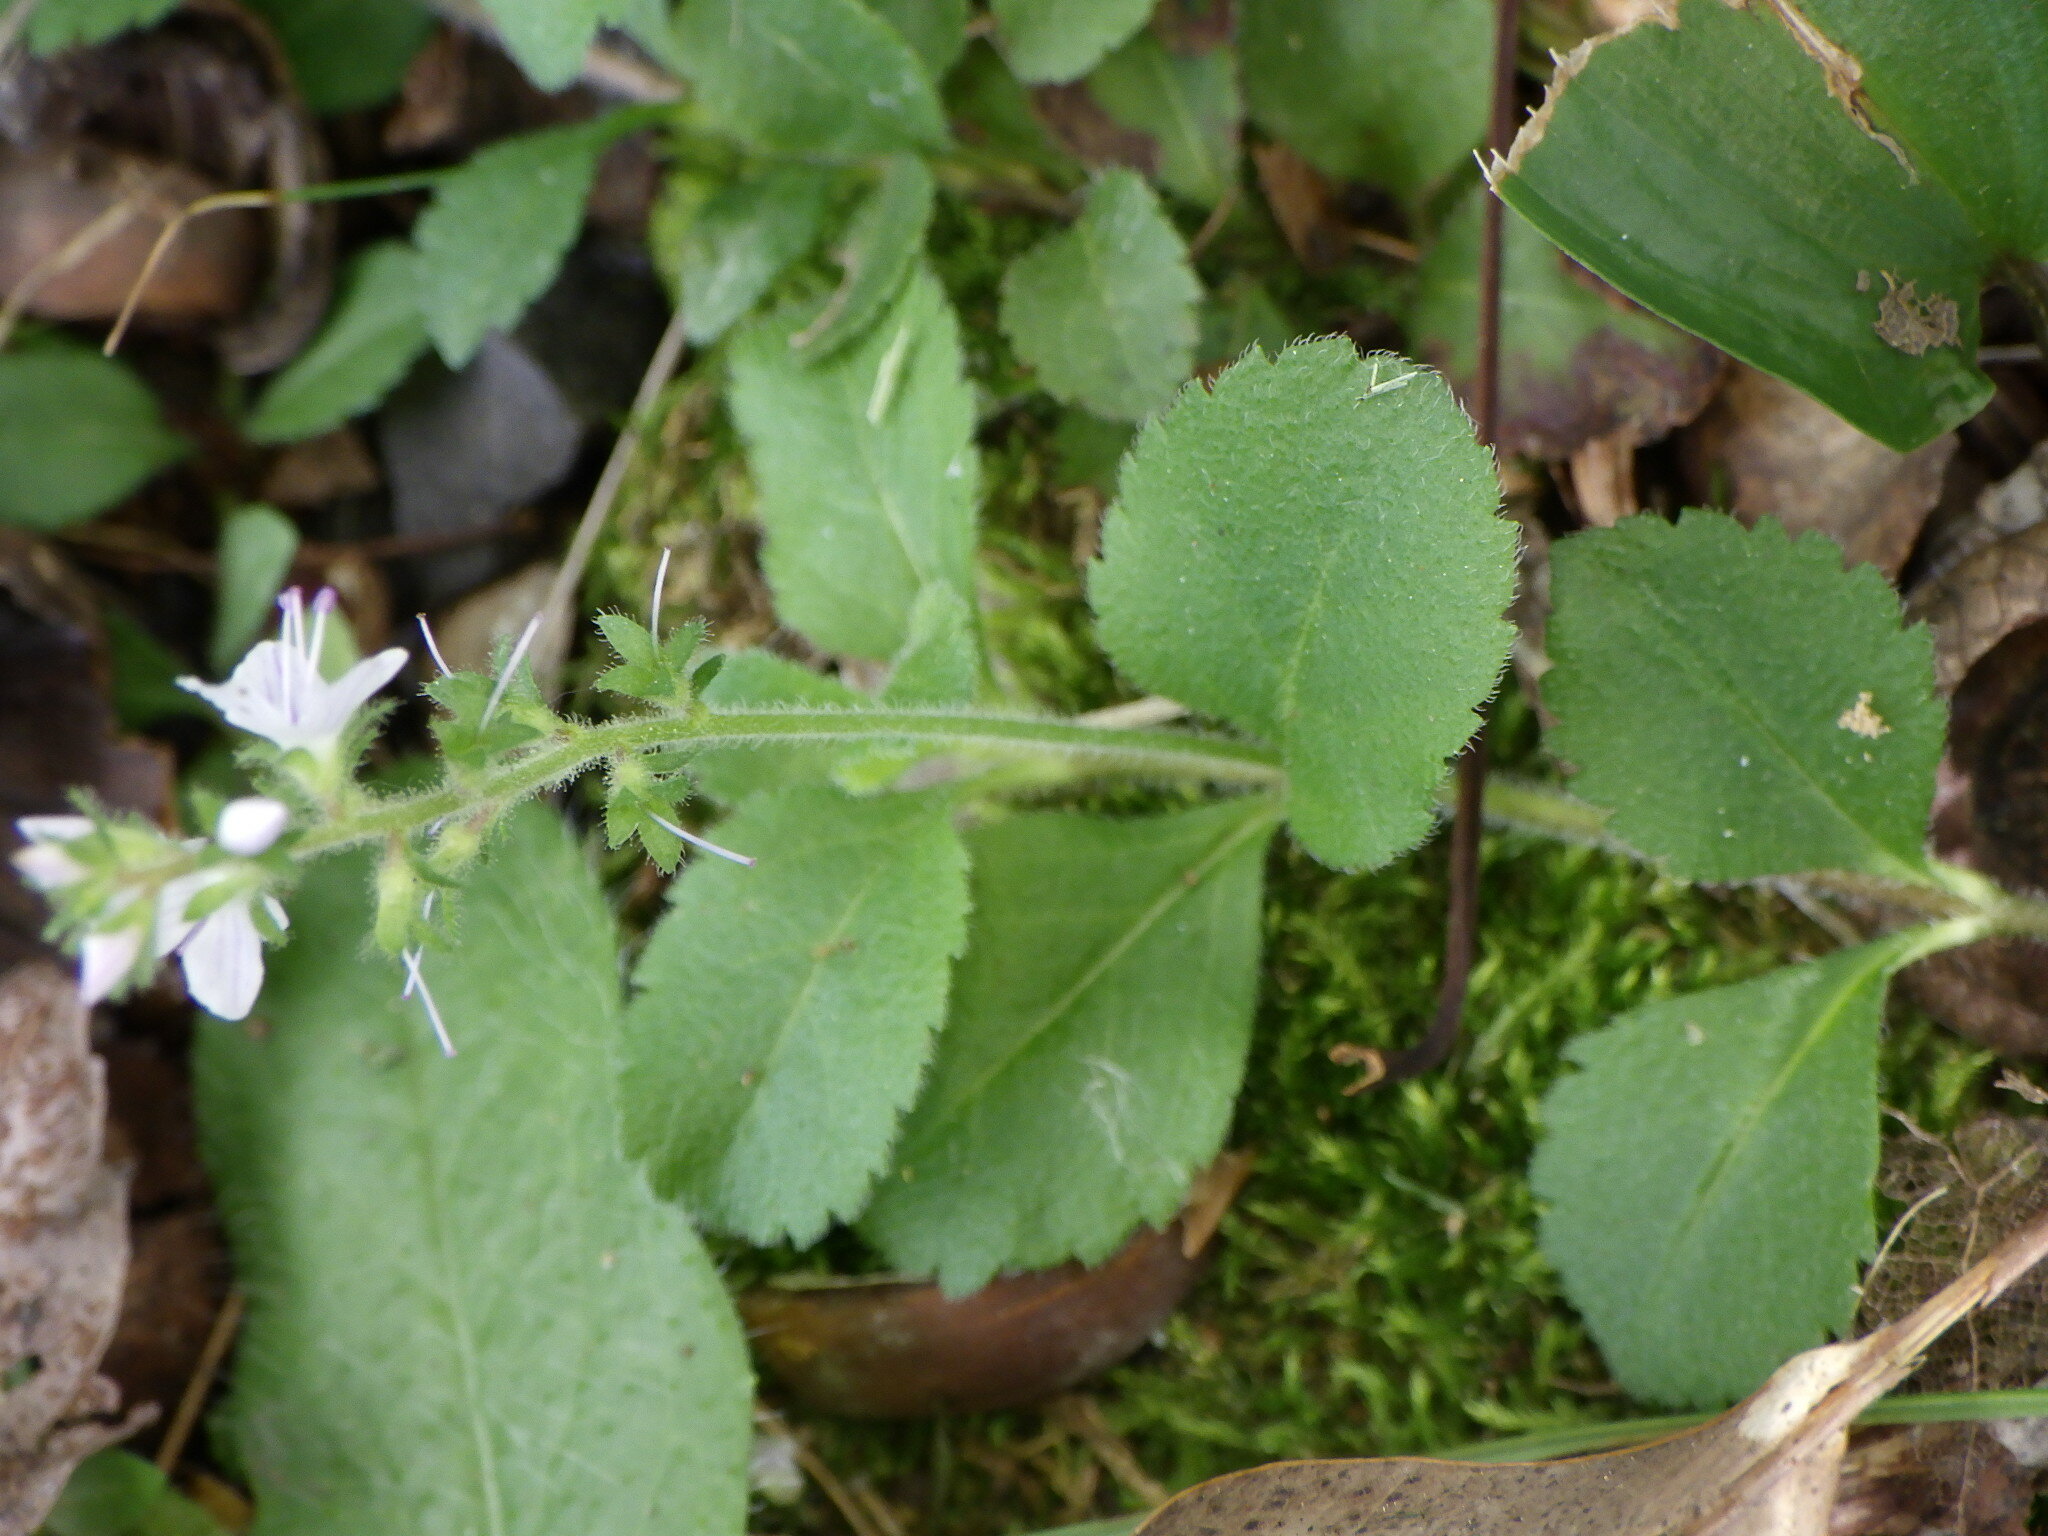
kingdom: Plantae
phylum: Tracheophyta
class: Magnoliopsida
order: Lamiales
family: Plantaginaceae
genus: Veronica
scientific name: Veronica officinalis
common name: Common speedwell
